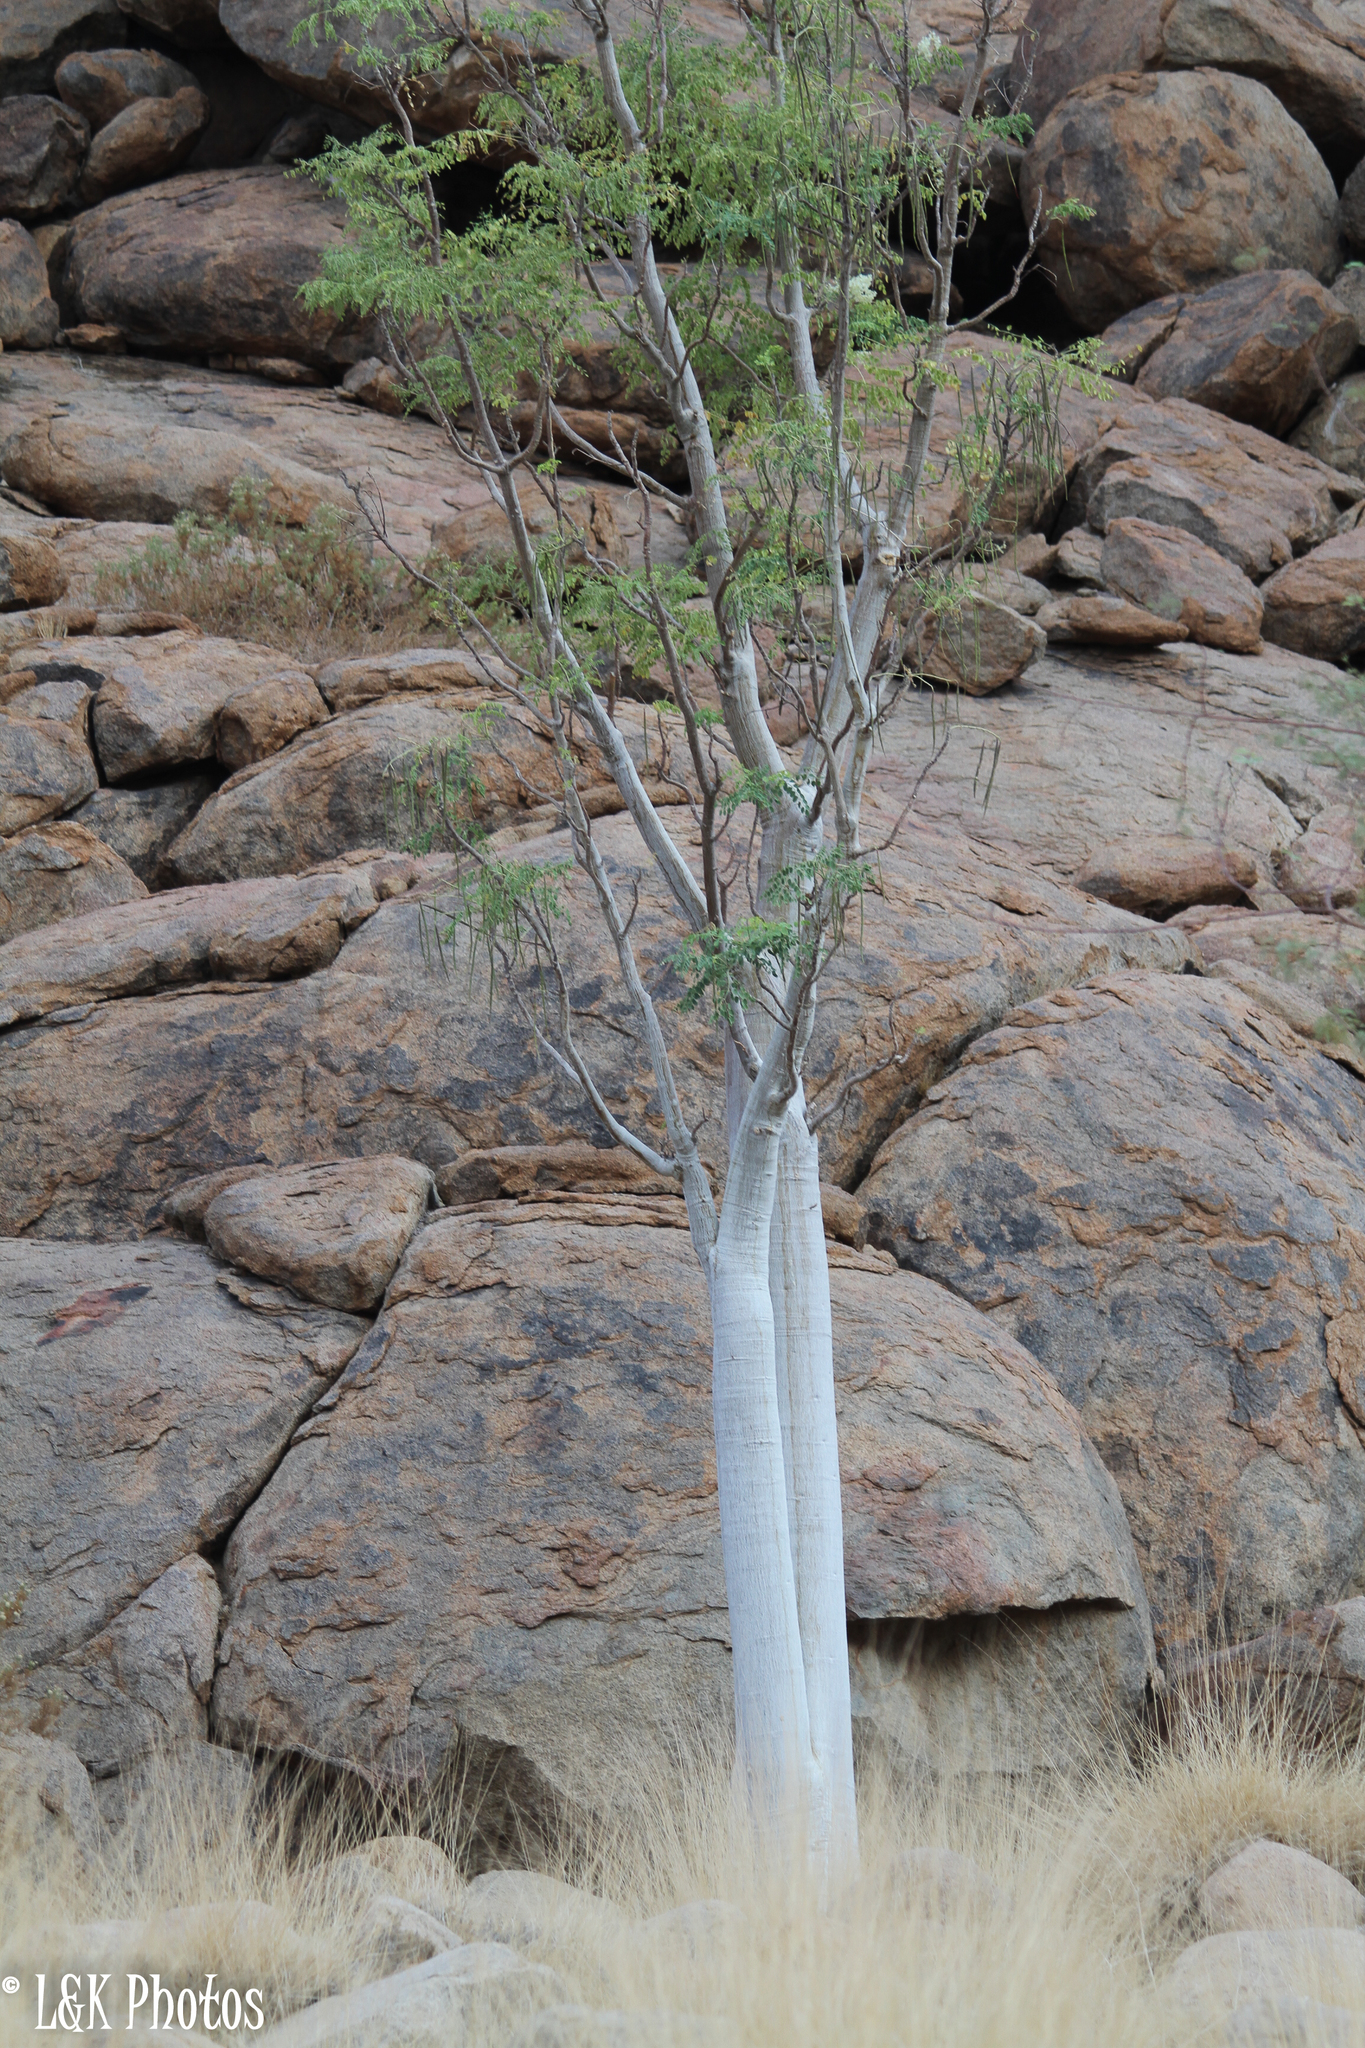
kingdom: Plantae
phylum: Tracheophyta
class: Magnoliopsida
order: Brassicales
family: Moringaceae
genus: Moringa
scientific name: Moringa ovalifolia
